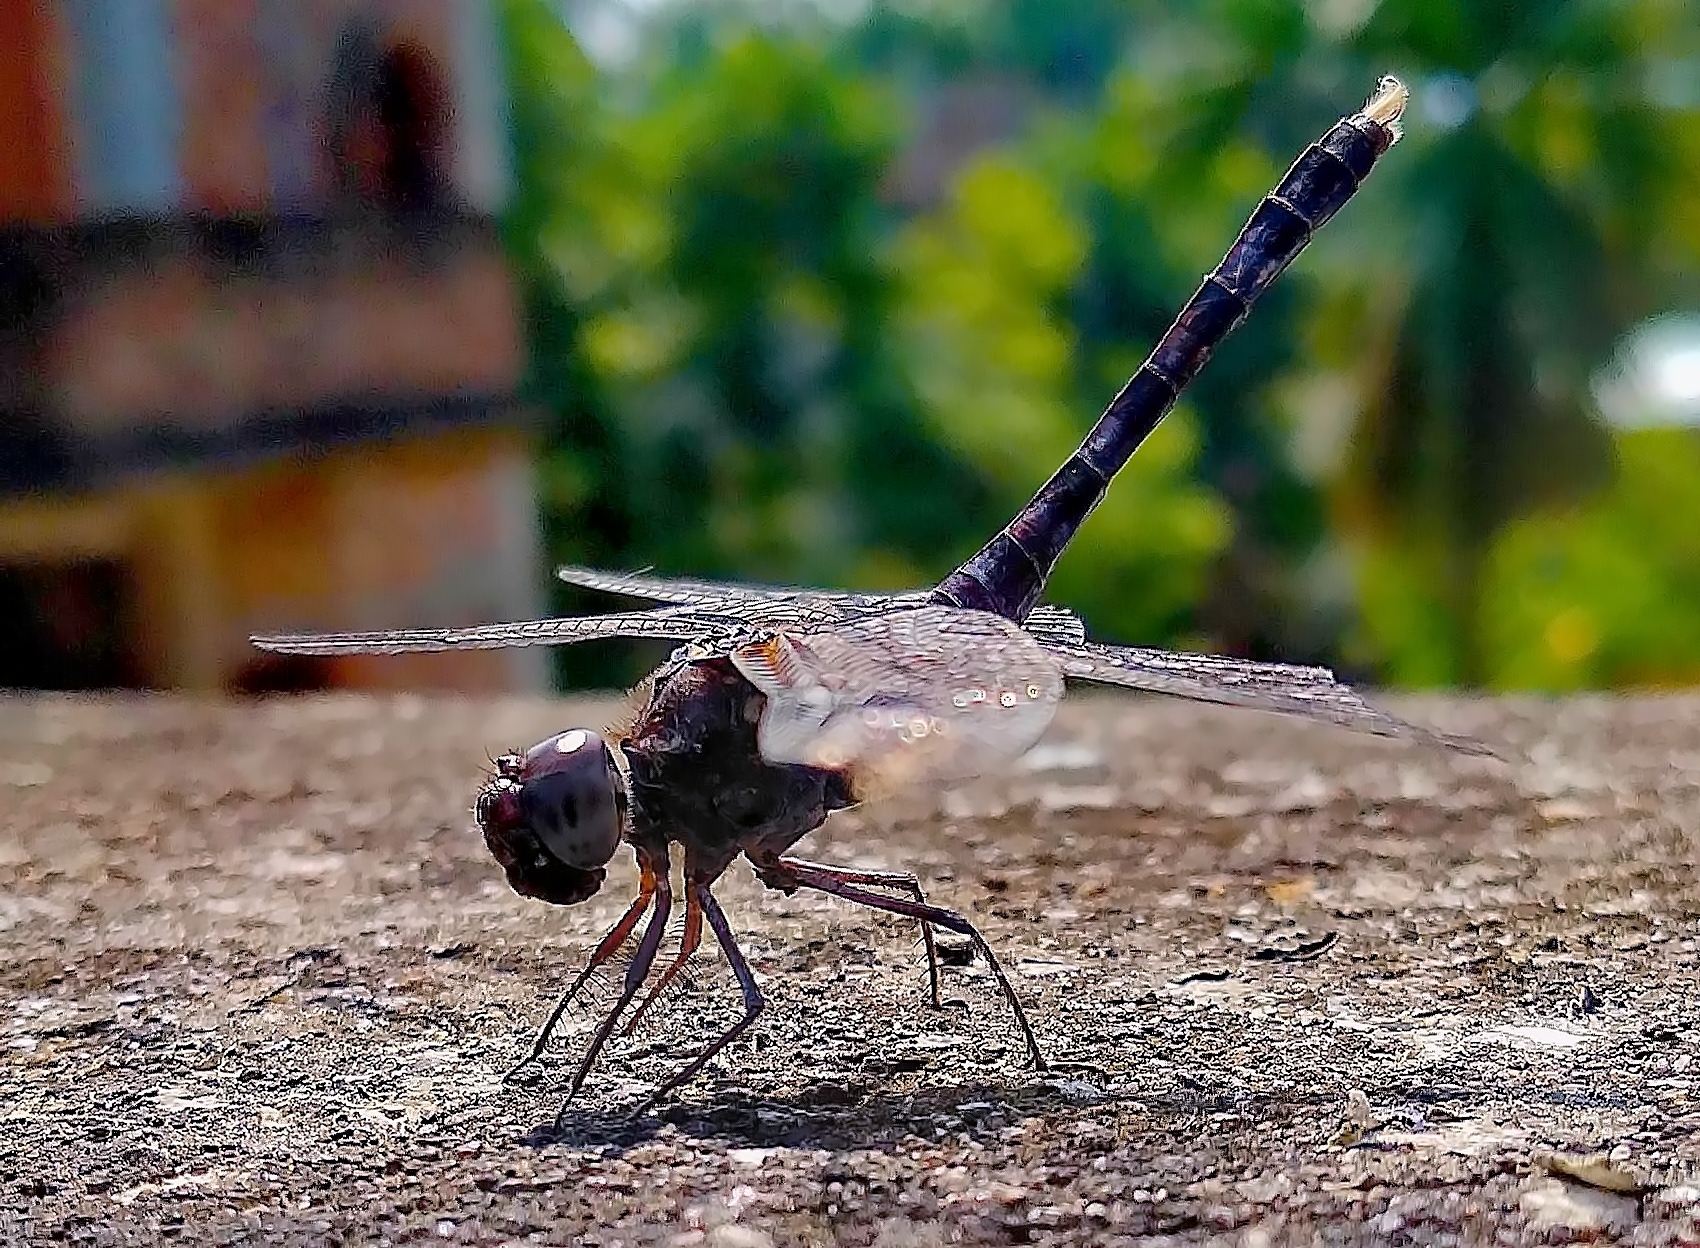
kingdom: Animalia
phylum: Arthropoda
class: Insecta
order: Odonata
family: Libellulidae
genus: Bradinopyga
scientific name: Bradinopyga geminata
